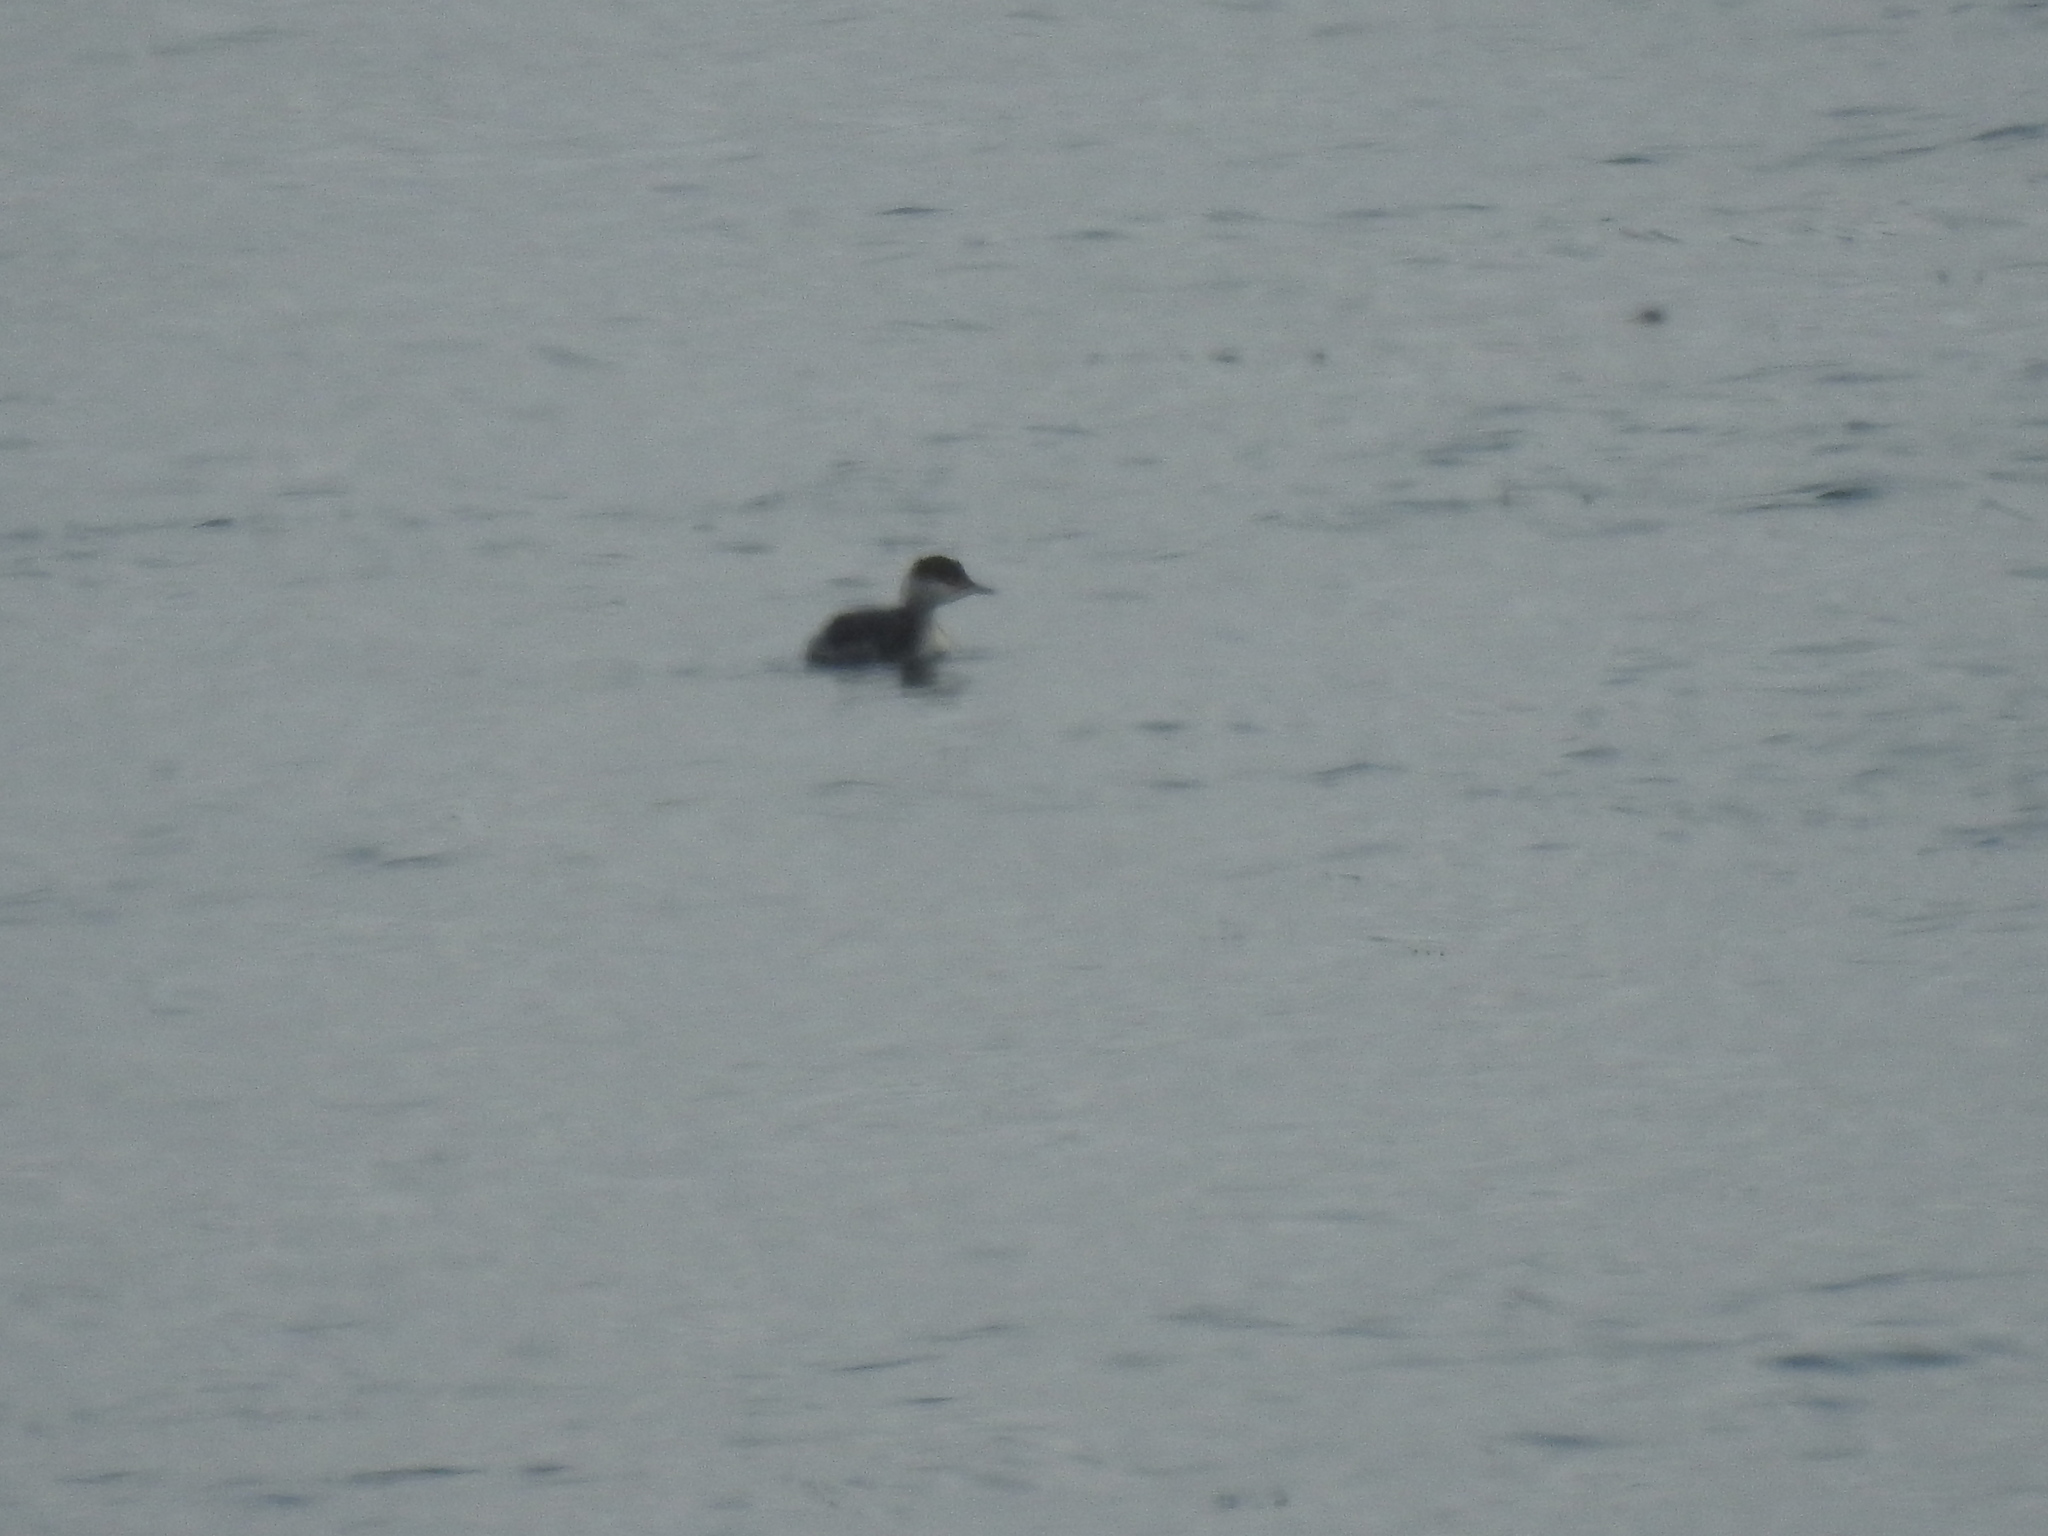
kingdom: Animalia
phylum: Chordata
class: Aves
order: Podicipediformes
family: Podicipedidae
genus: Podiceps
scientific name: Podiceps auritus
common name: Horned grebe
